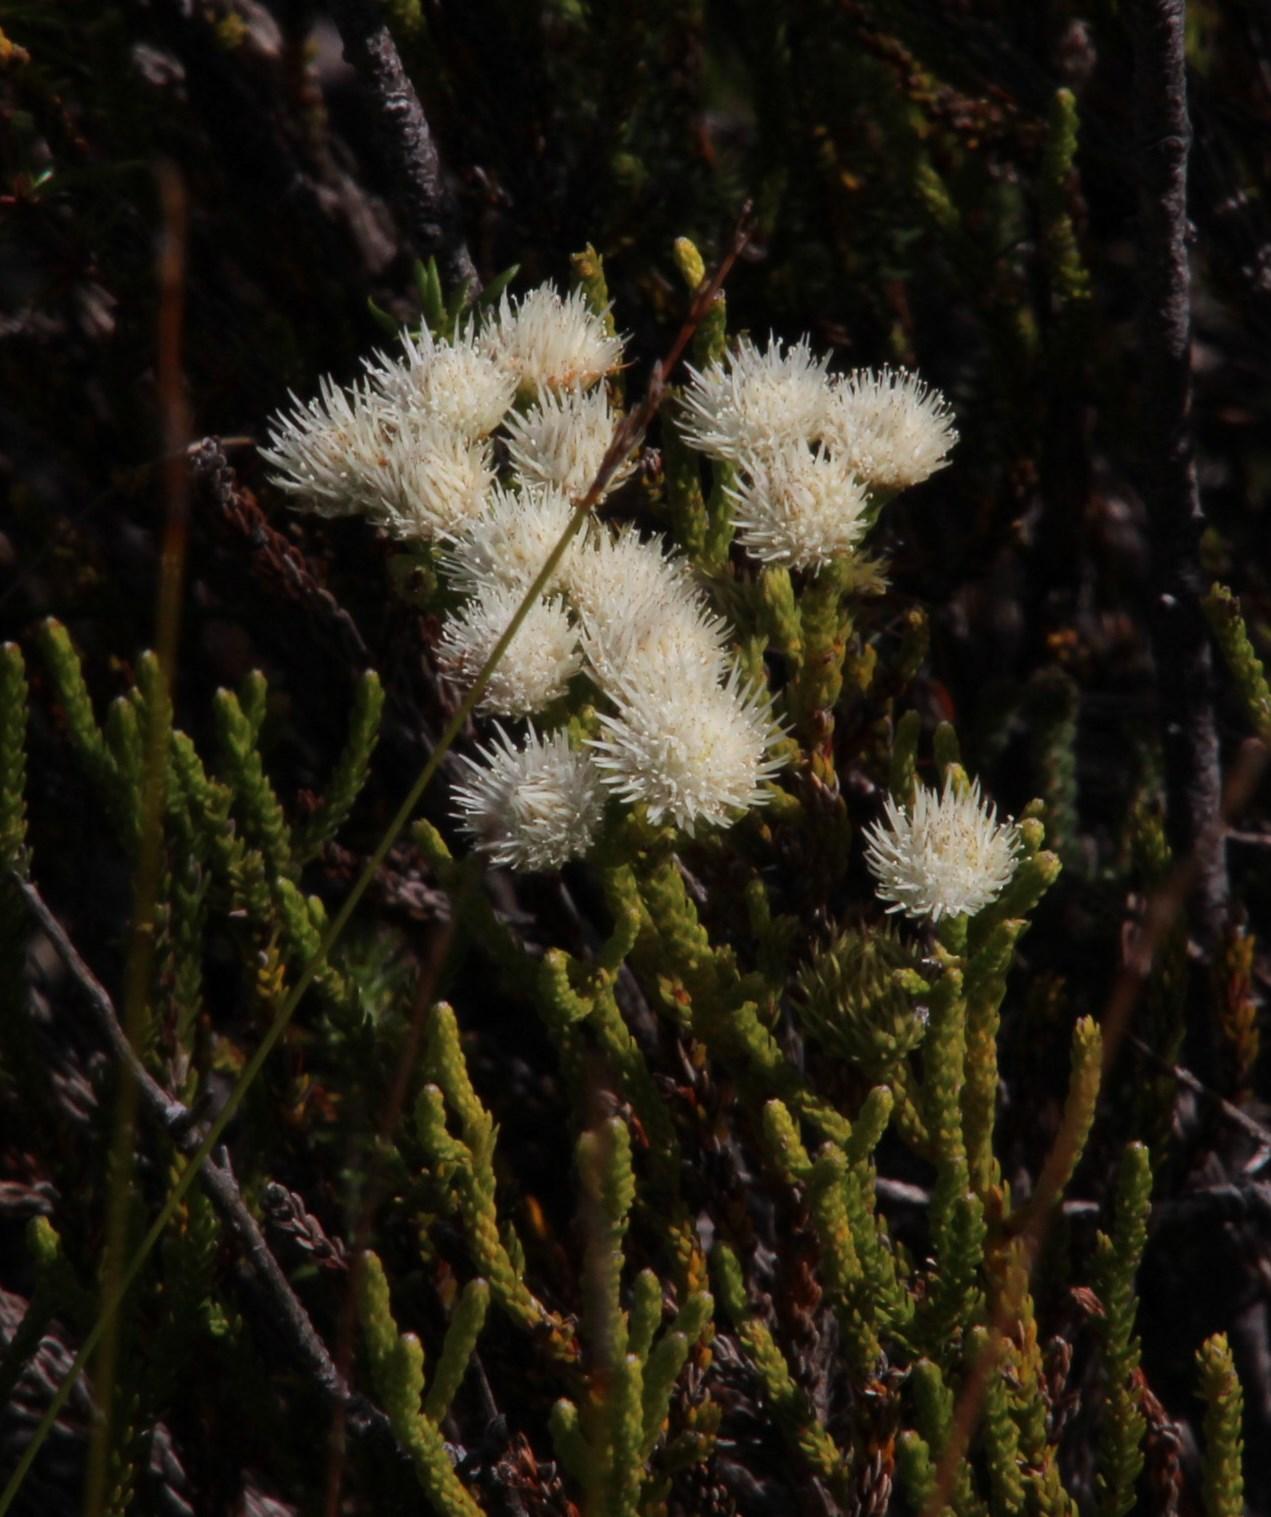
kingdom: Plantae
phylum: Tracheophyta
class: Magnoliopsida
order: Bruniales
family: Bruniaceae
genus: Brunia
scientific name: Brunia paleacea
